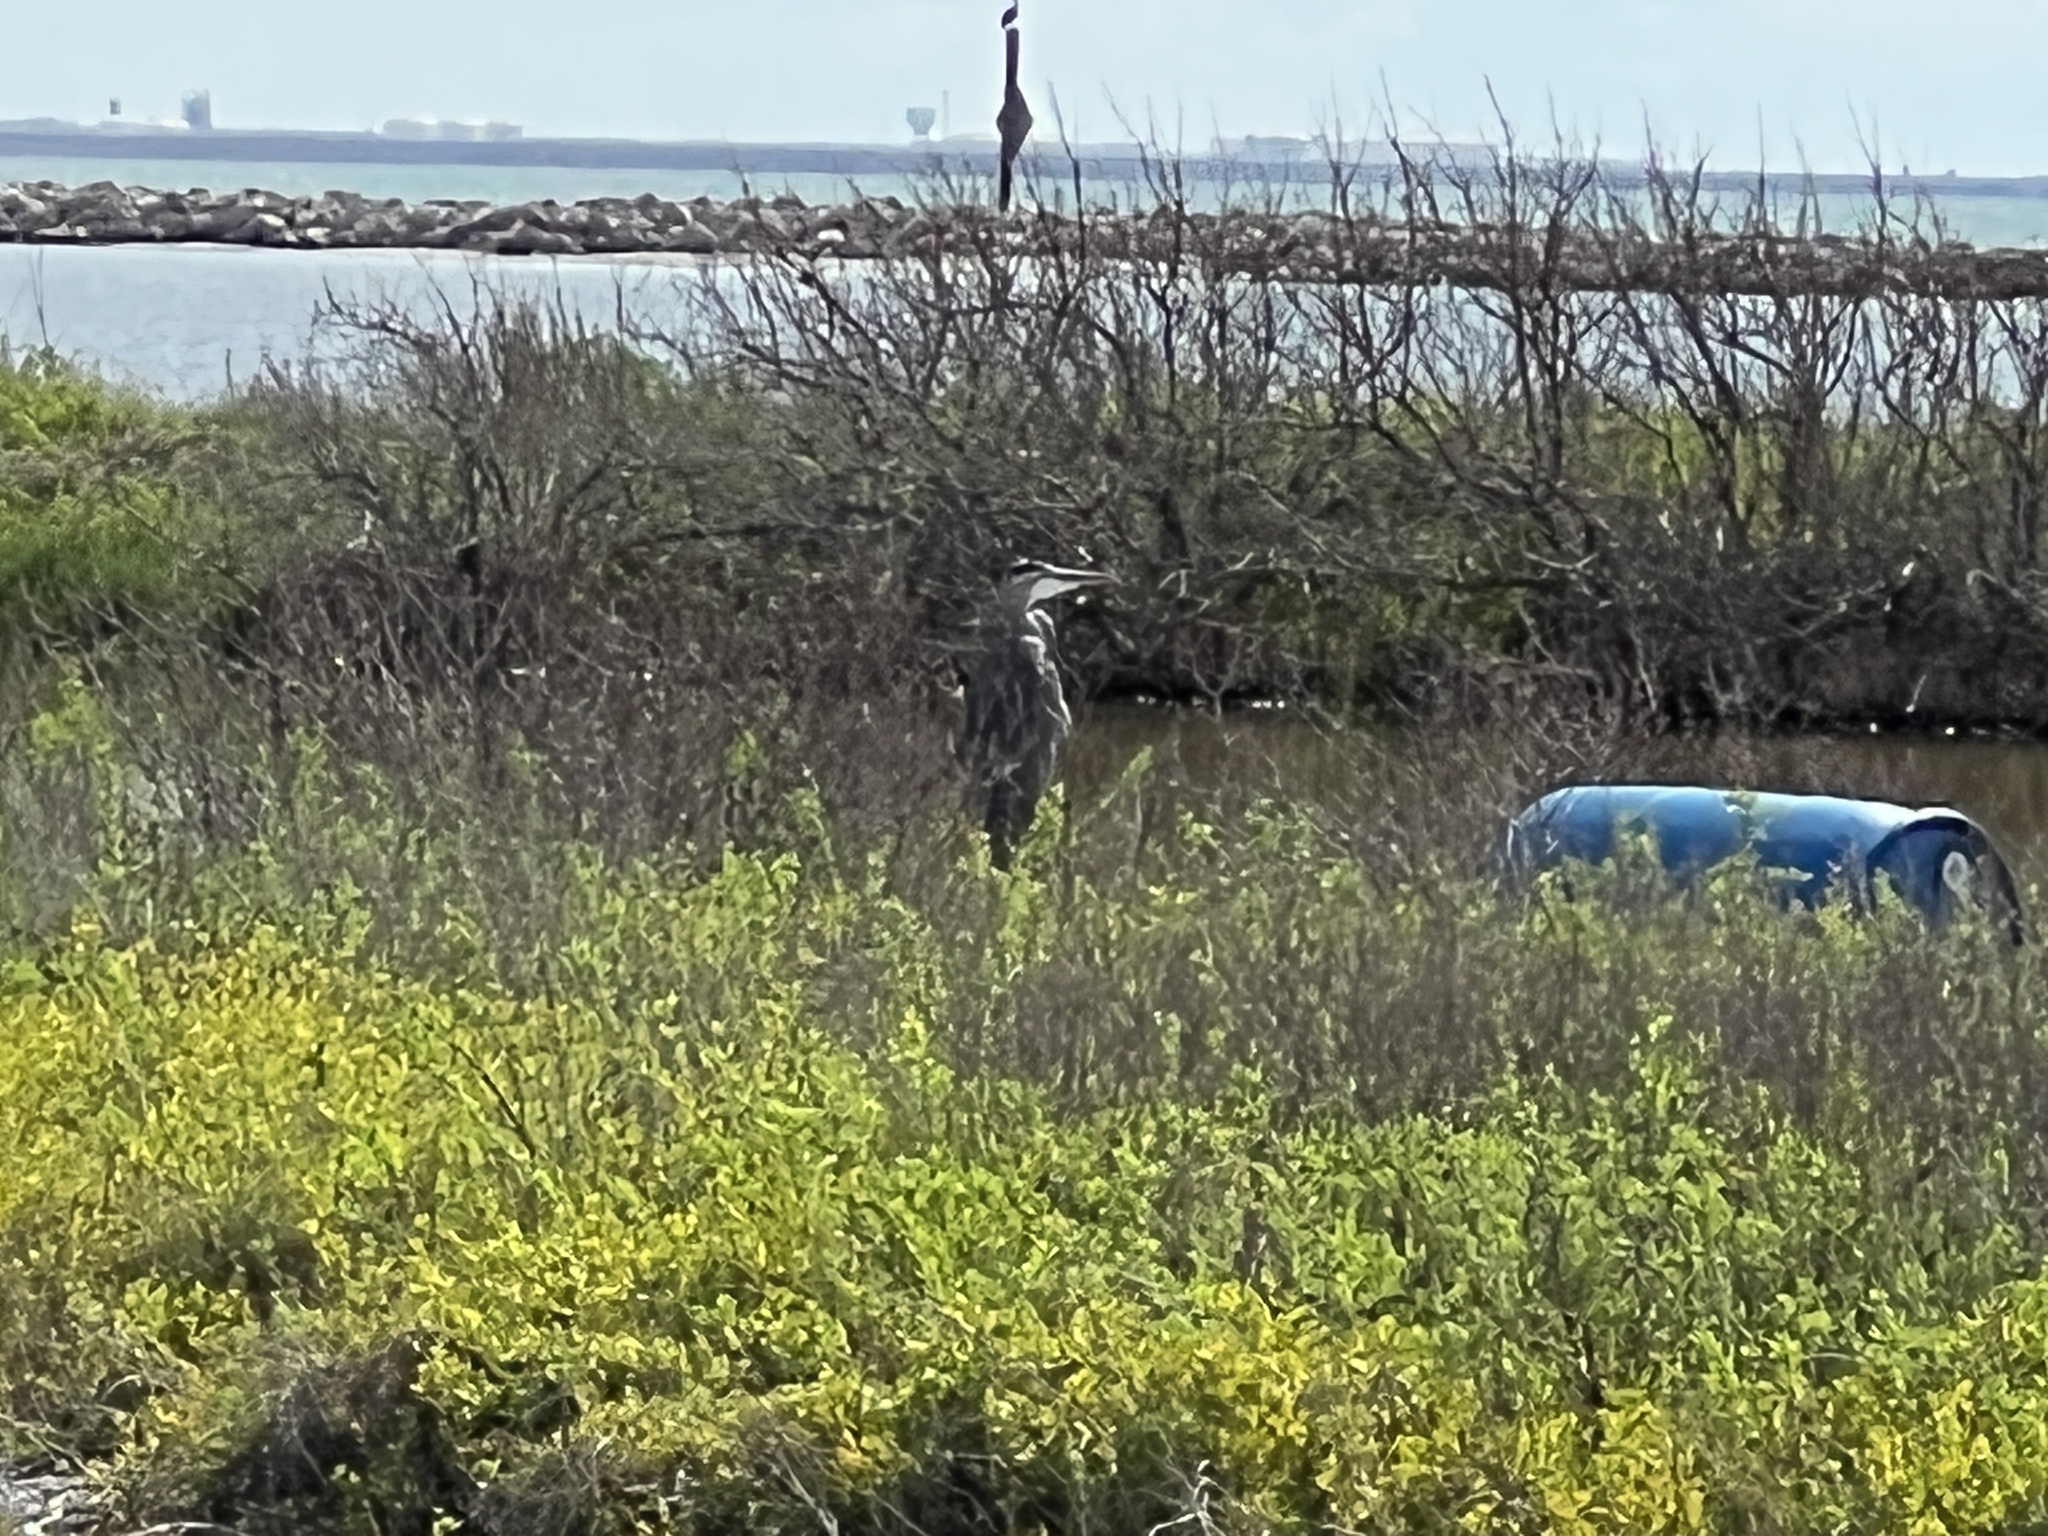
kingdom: Animalia
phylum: Chordata
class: Aves
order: Pelecaniformes
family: Ardeidae
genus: Ardea
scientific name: Ardea herodias
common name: Great blue heron
